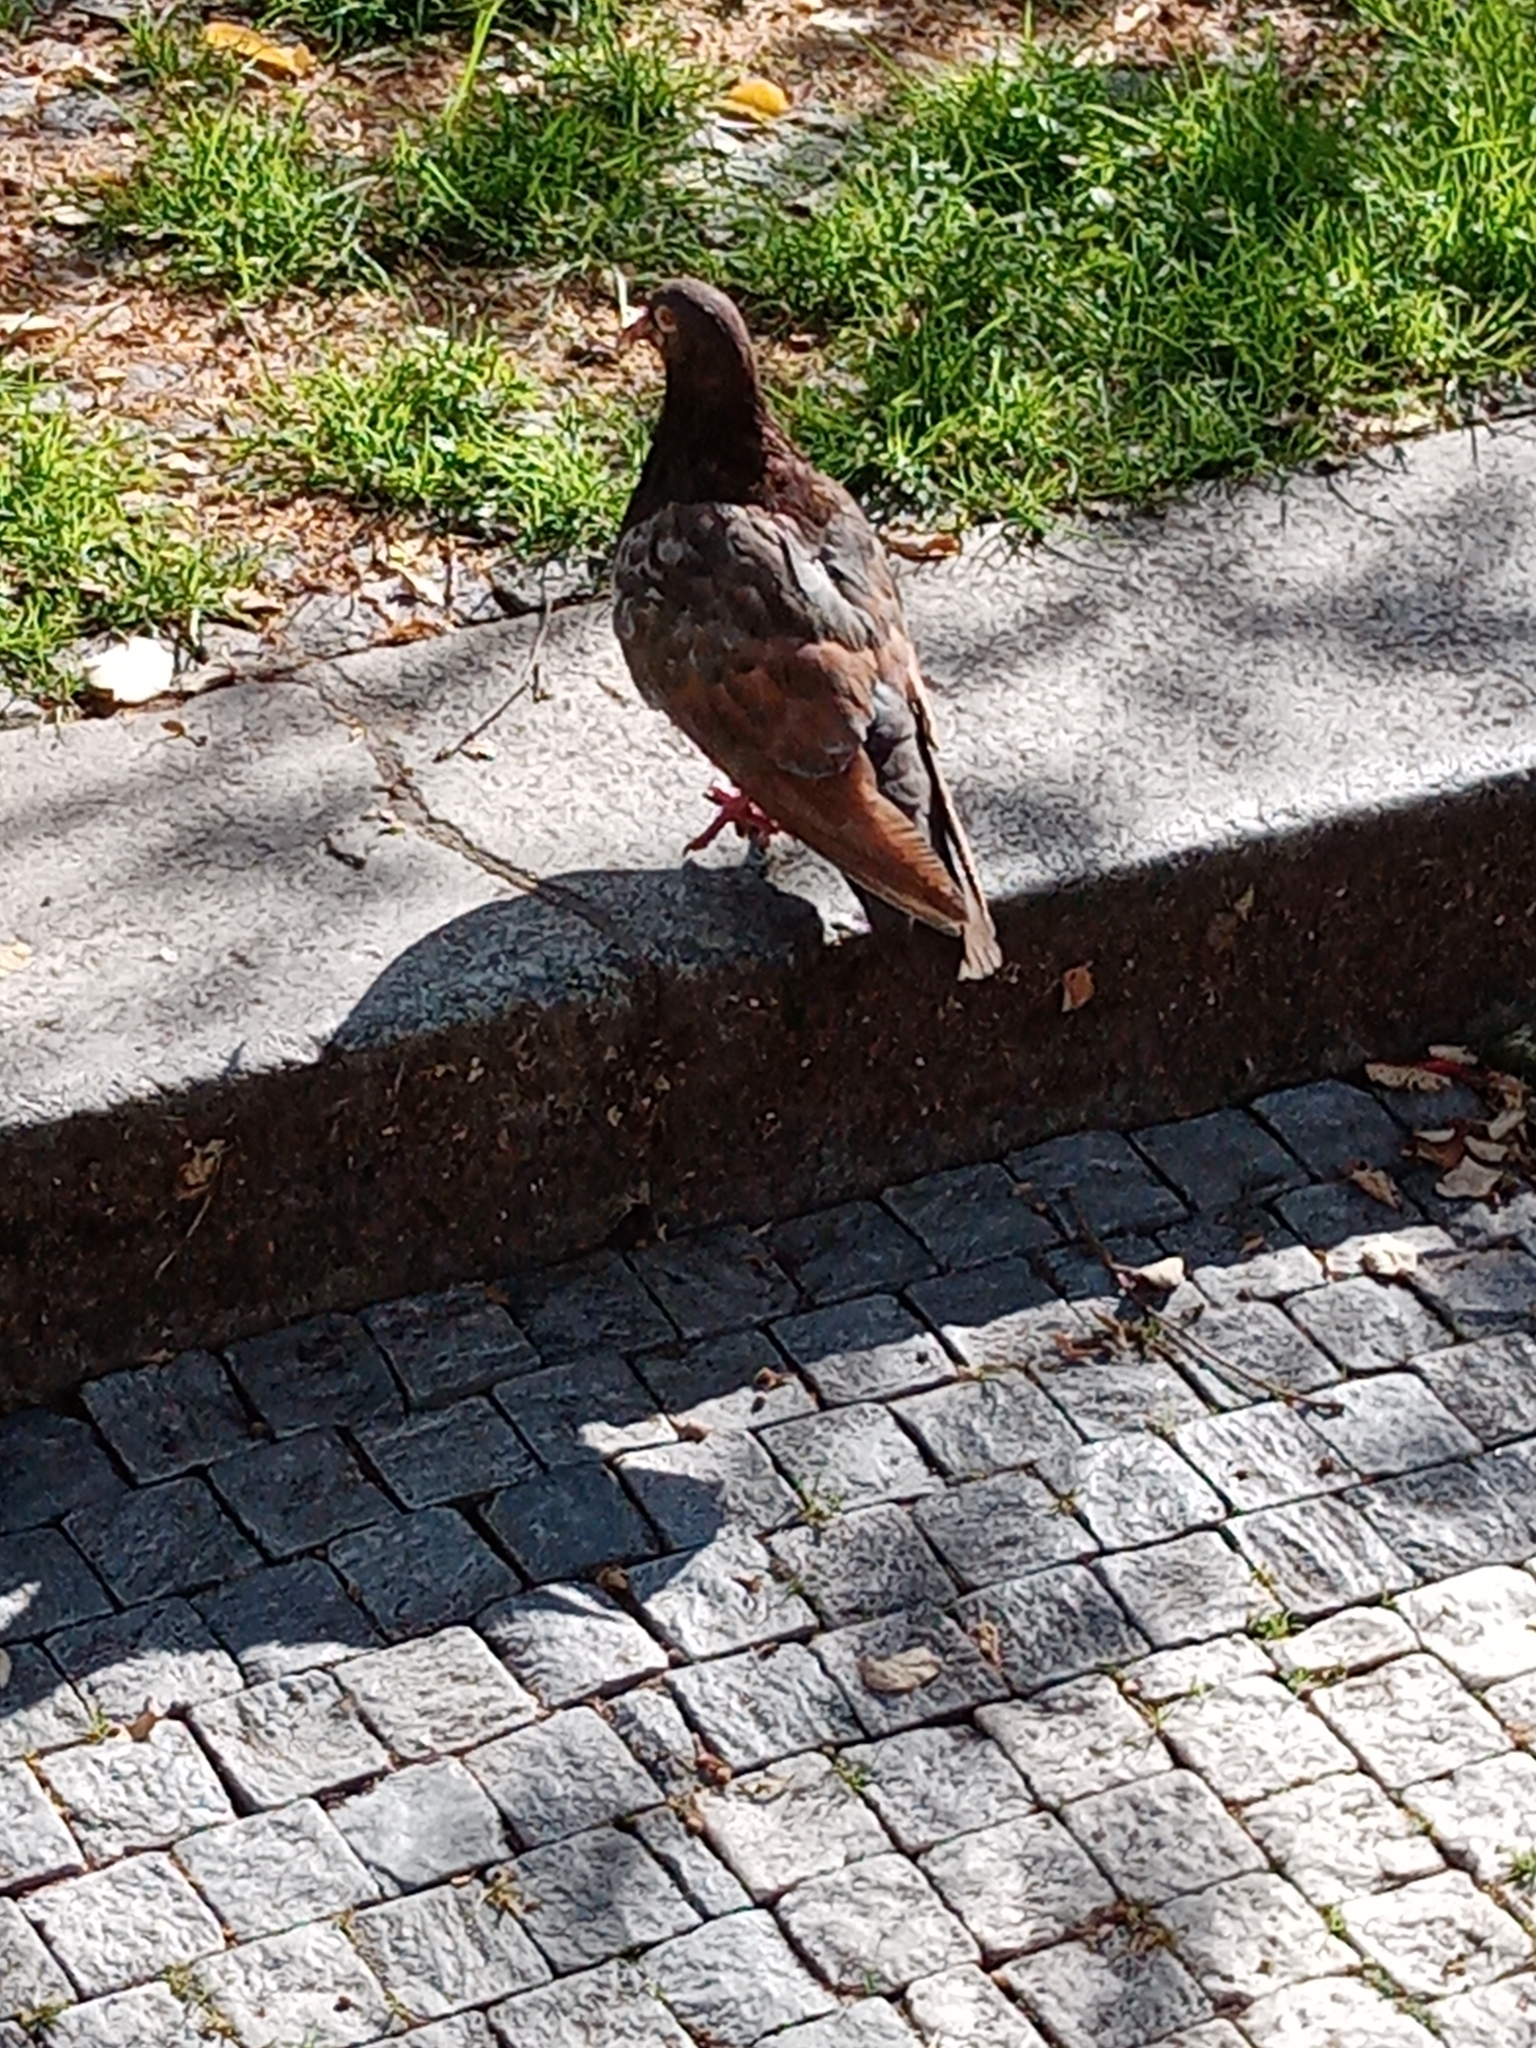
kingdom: Animalia
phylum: Chordata
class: Aves
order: Columbiformes
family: Columbidae
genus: Columba
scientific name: Columba livia
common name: Rock pigeon
